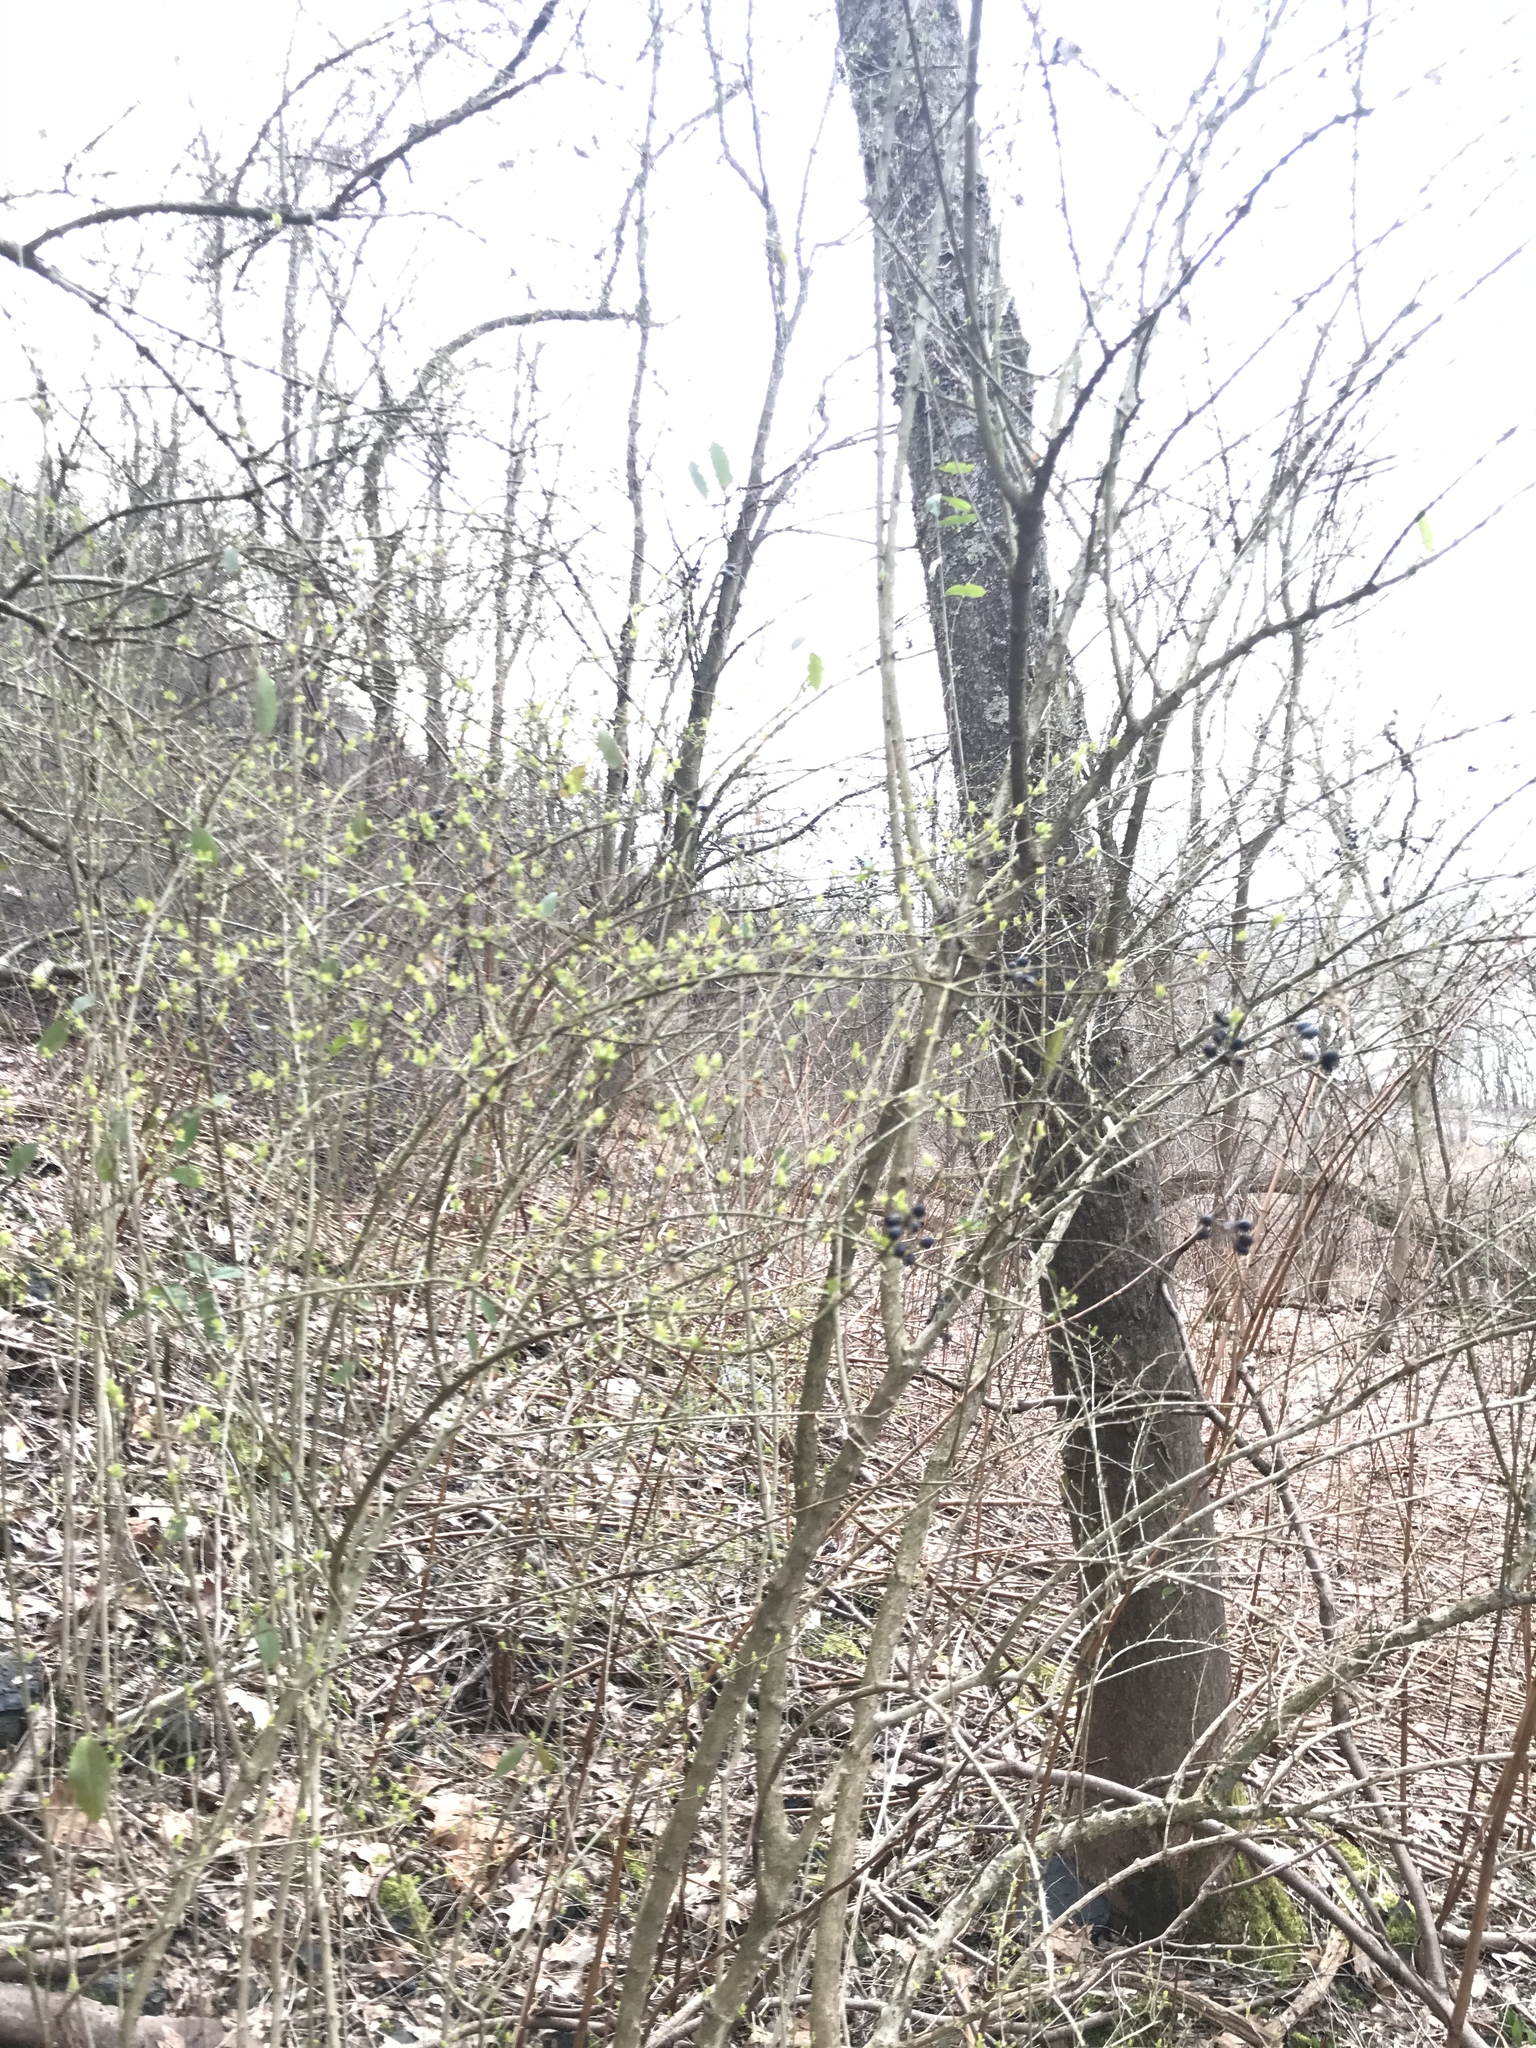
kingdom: Plantae
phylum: Tracheophyta
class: Magnoliopsida
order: Lamiales
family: Oleaceae
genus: Ligustrum
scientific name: Ligustrum obtusifolium
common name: Border privet
